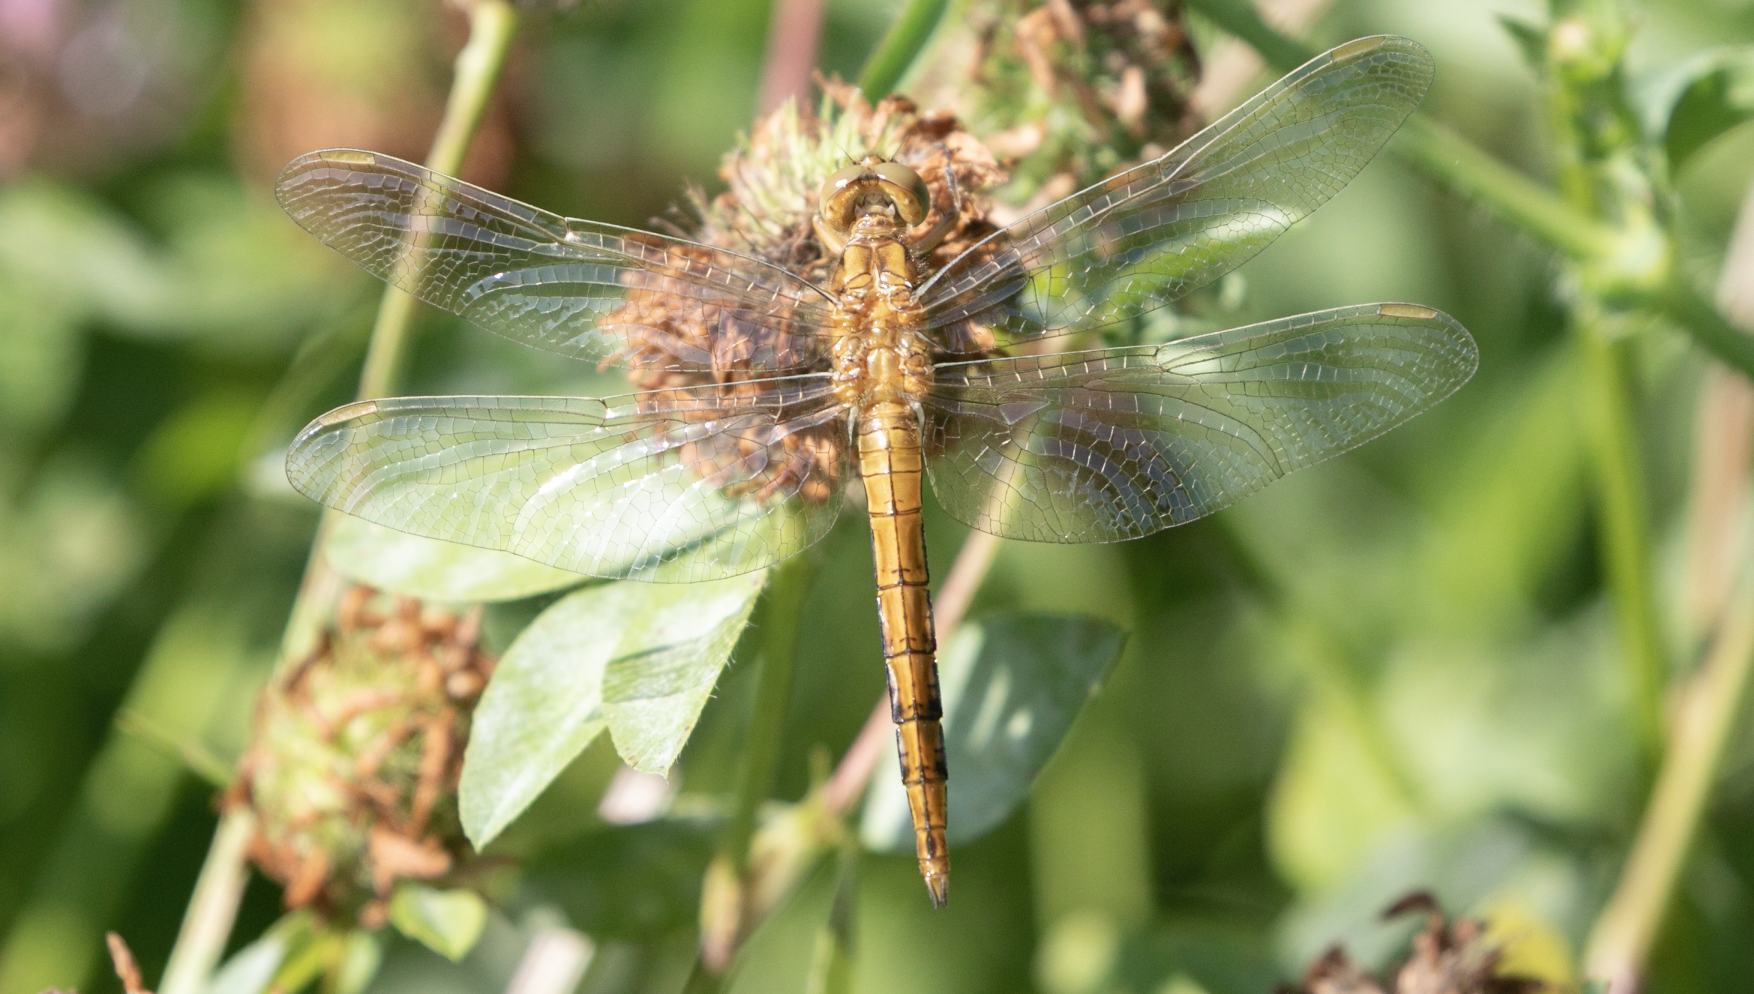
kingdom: Animalia
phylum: Arthropoda
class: Insecta
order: Odonata
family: Libellulidae
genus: Orthetrum
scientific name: Orthetrum coerulescens
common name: Keeled skimmer
